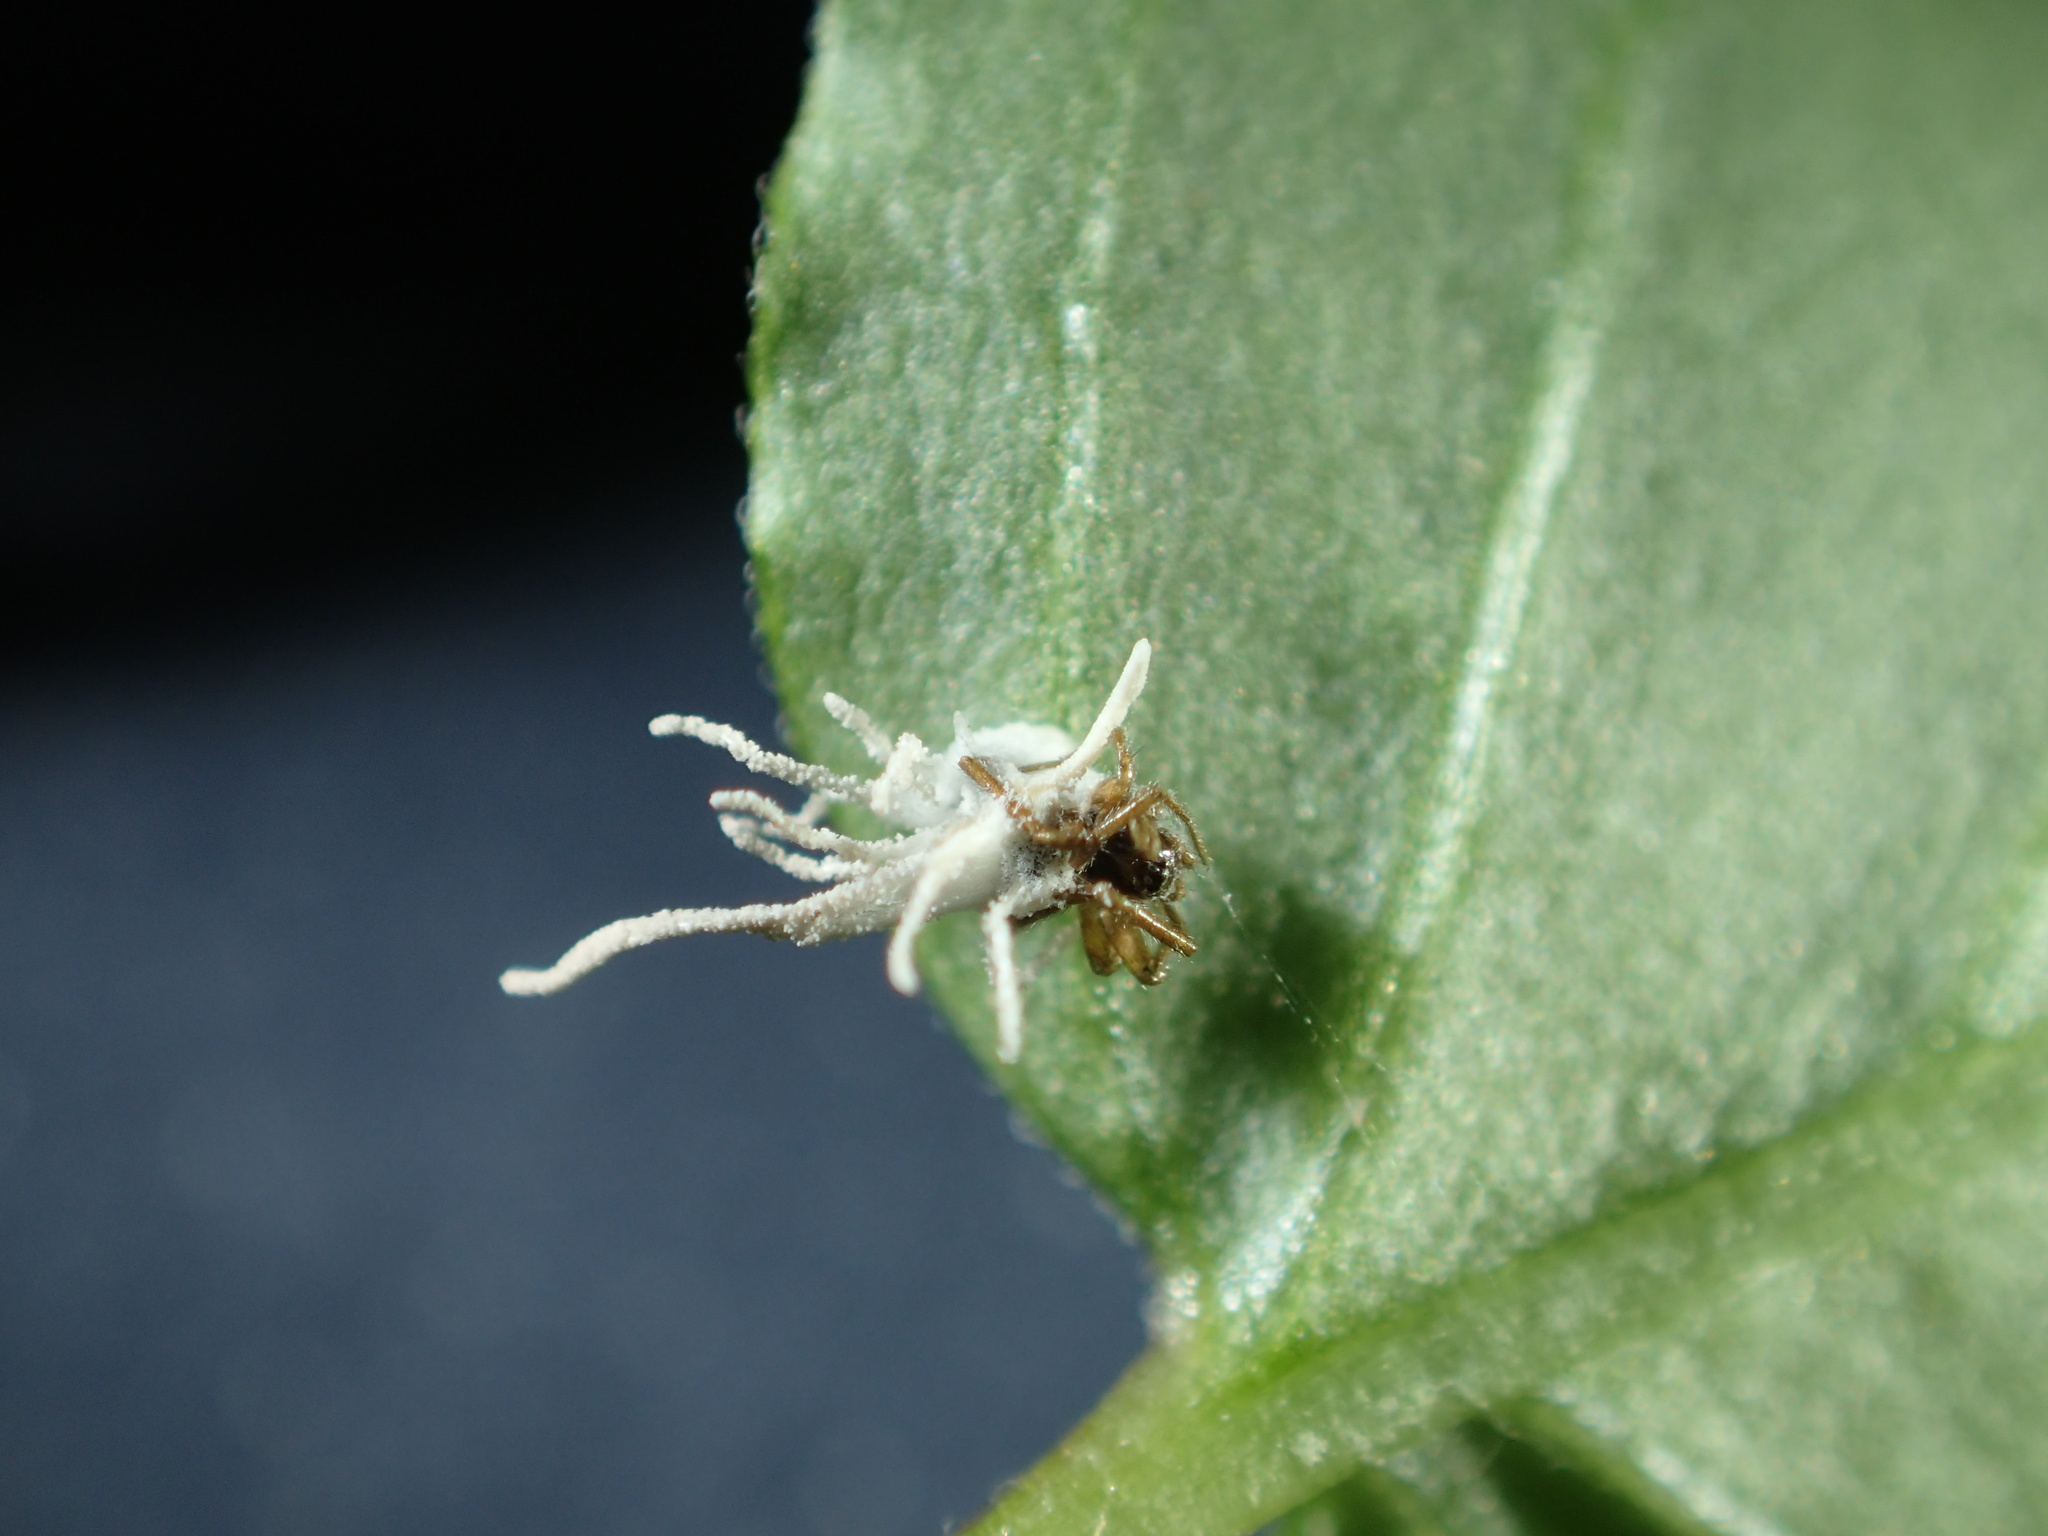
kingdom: Fungi
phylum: Ascomycota
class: Sordariomycetes
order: Hypocreales
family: Cordycipitaceae
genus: Gibellula
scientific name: Gibellula arachnophila
